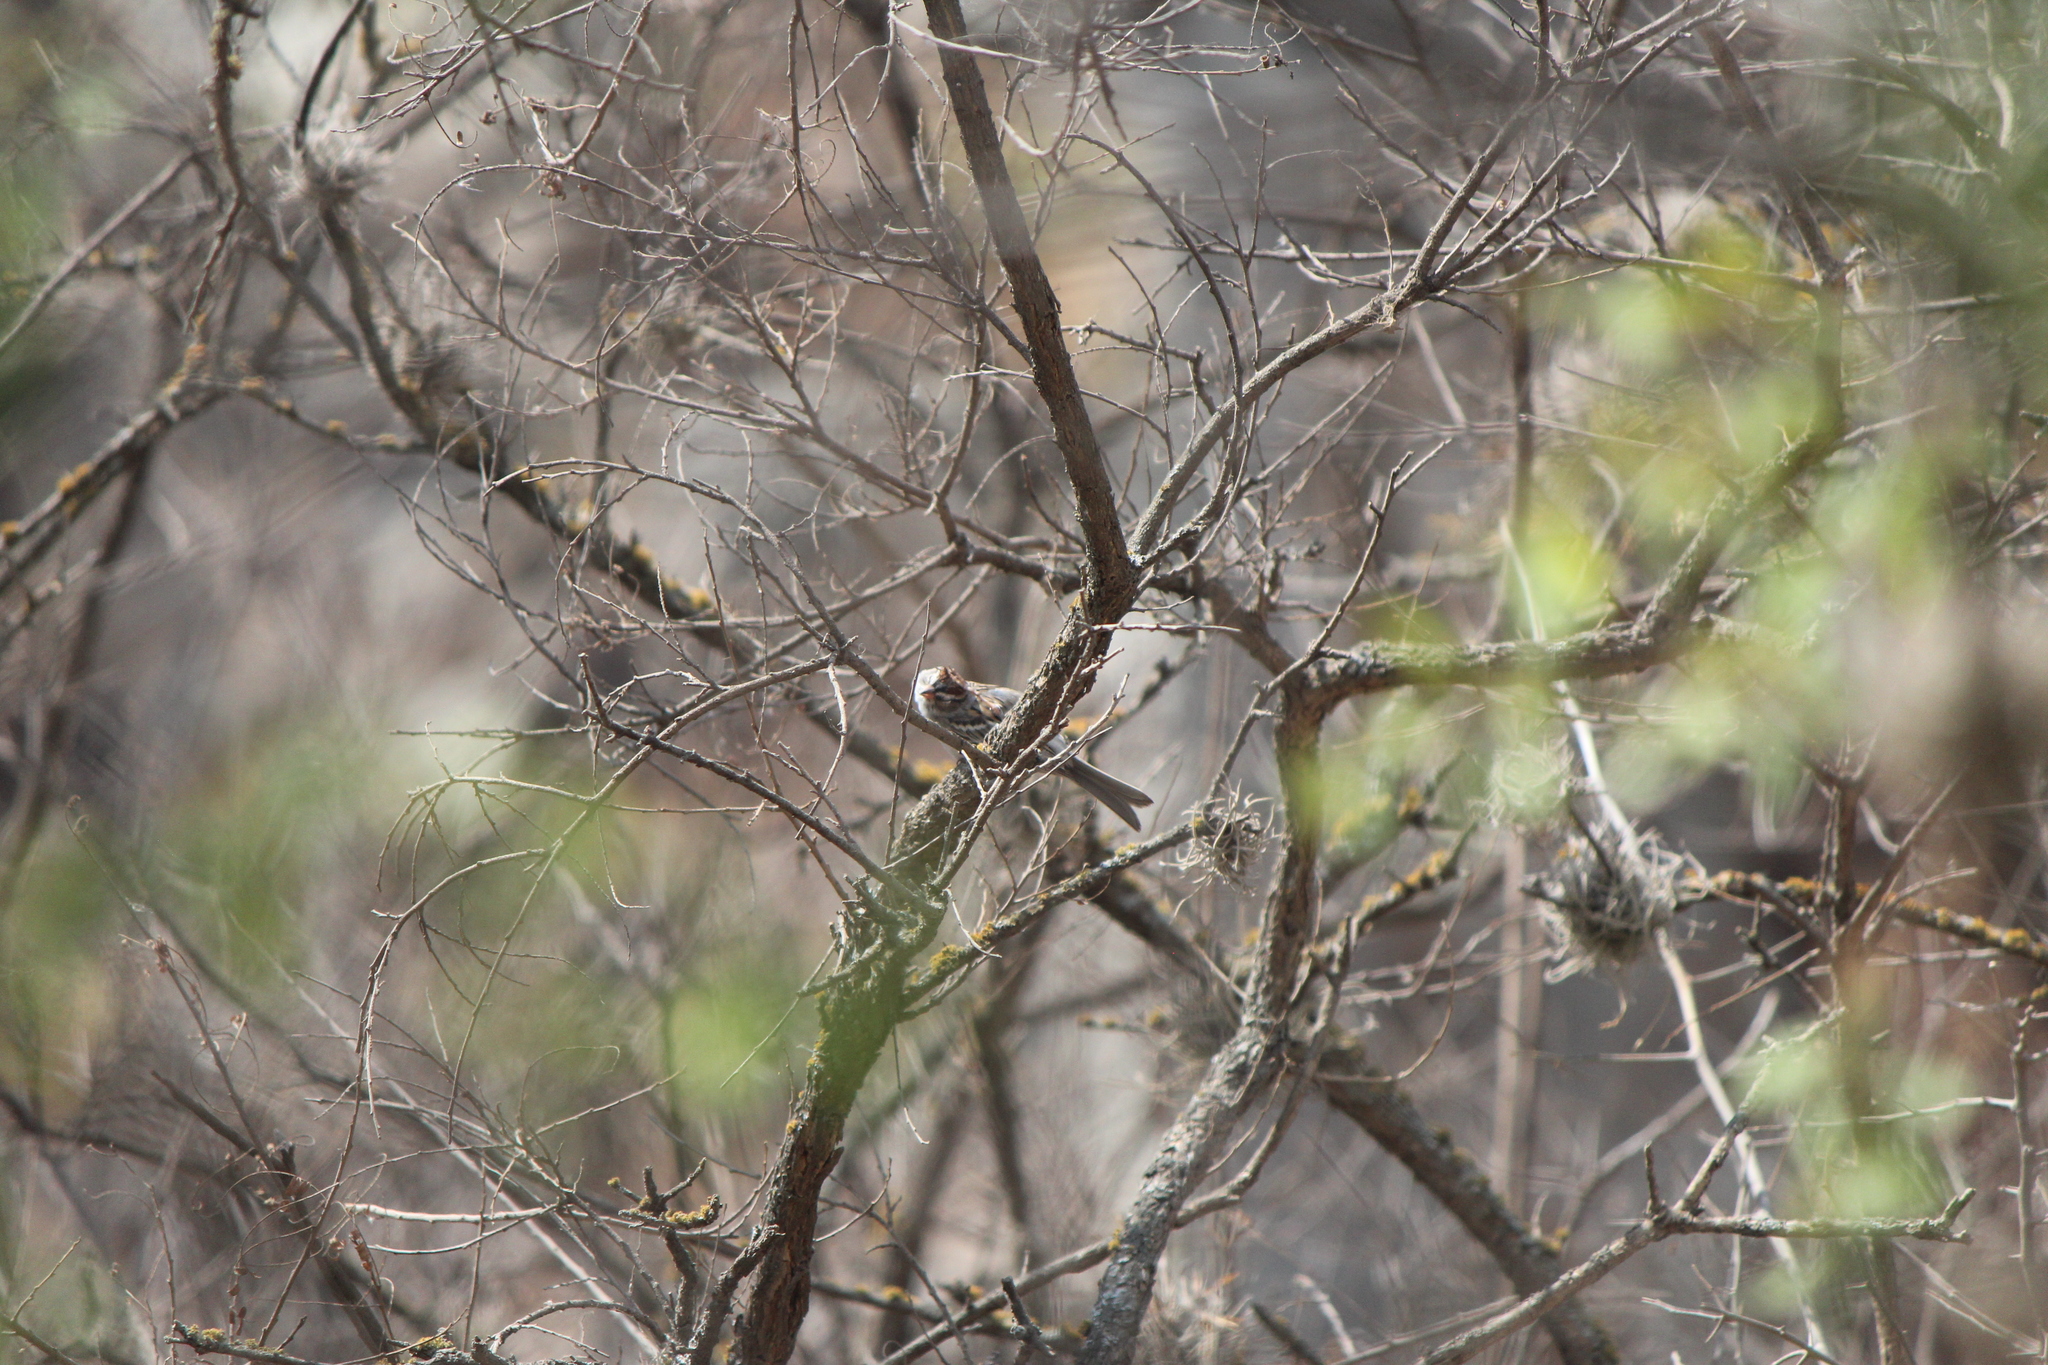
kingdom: Animalia
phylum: Chordata
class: Aves
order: Passeriformes
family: Passerellidae
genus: Spizella
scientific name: Spizella passerina
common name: Chipping sparrow
